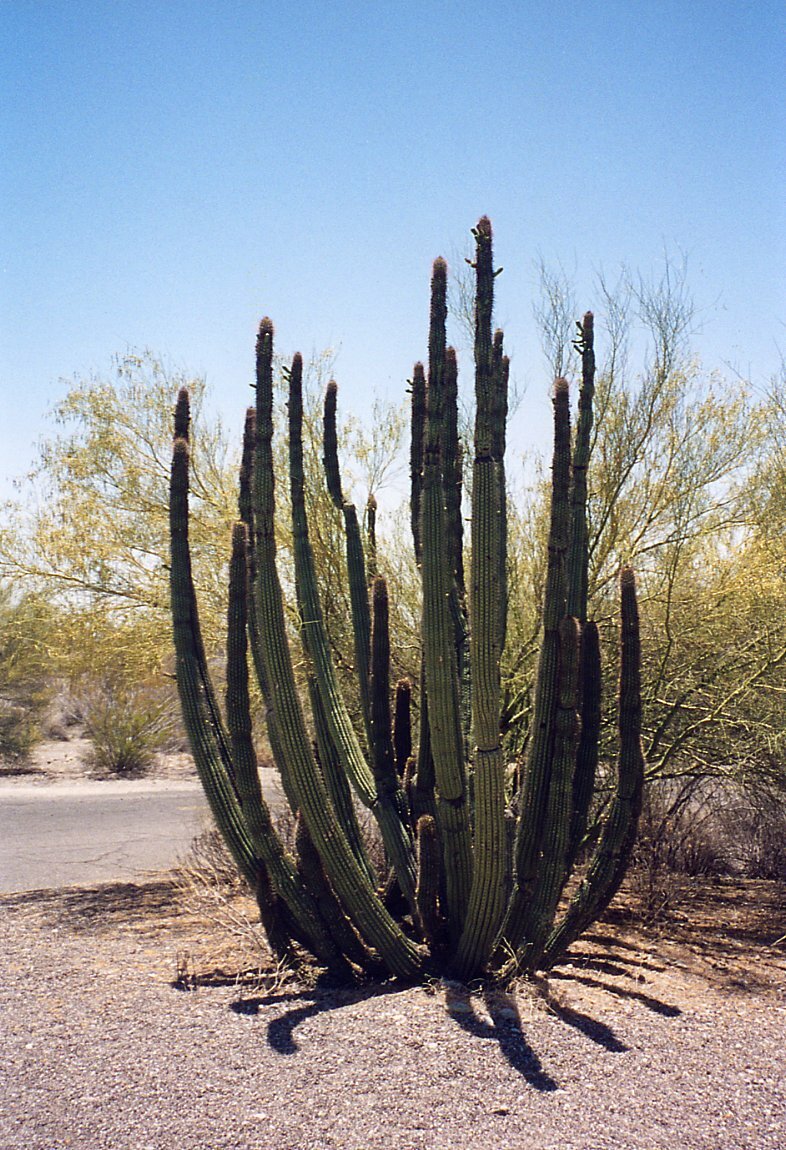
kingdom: Plantae
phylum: Tracheophyta
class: Magnoliopsida
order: Caryophyllales
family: Cactaceae
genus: Stenocereus
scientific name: Stenocereus thurberi
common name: Organ pipe cactus
